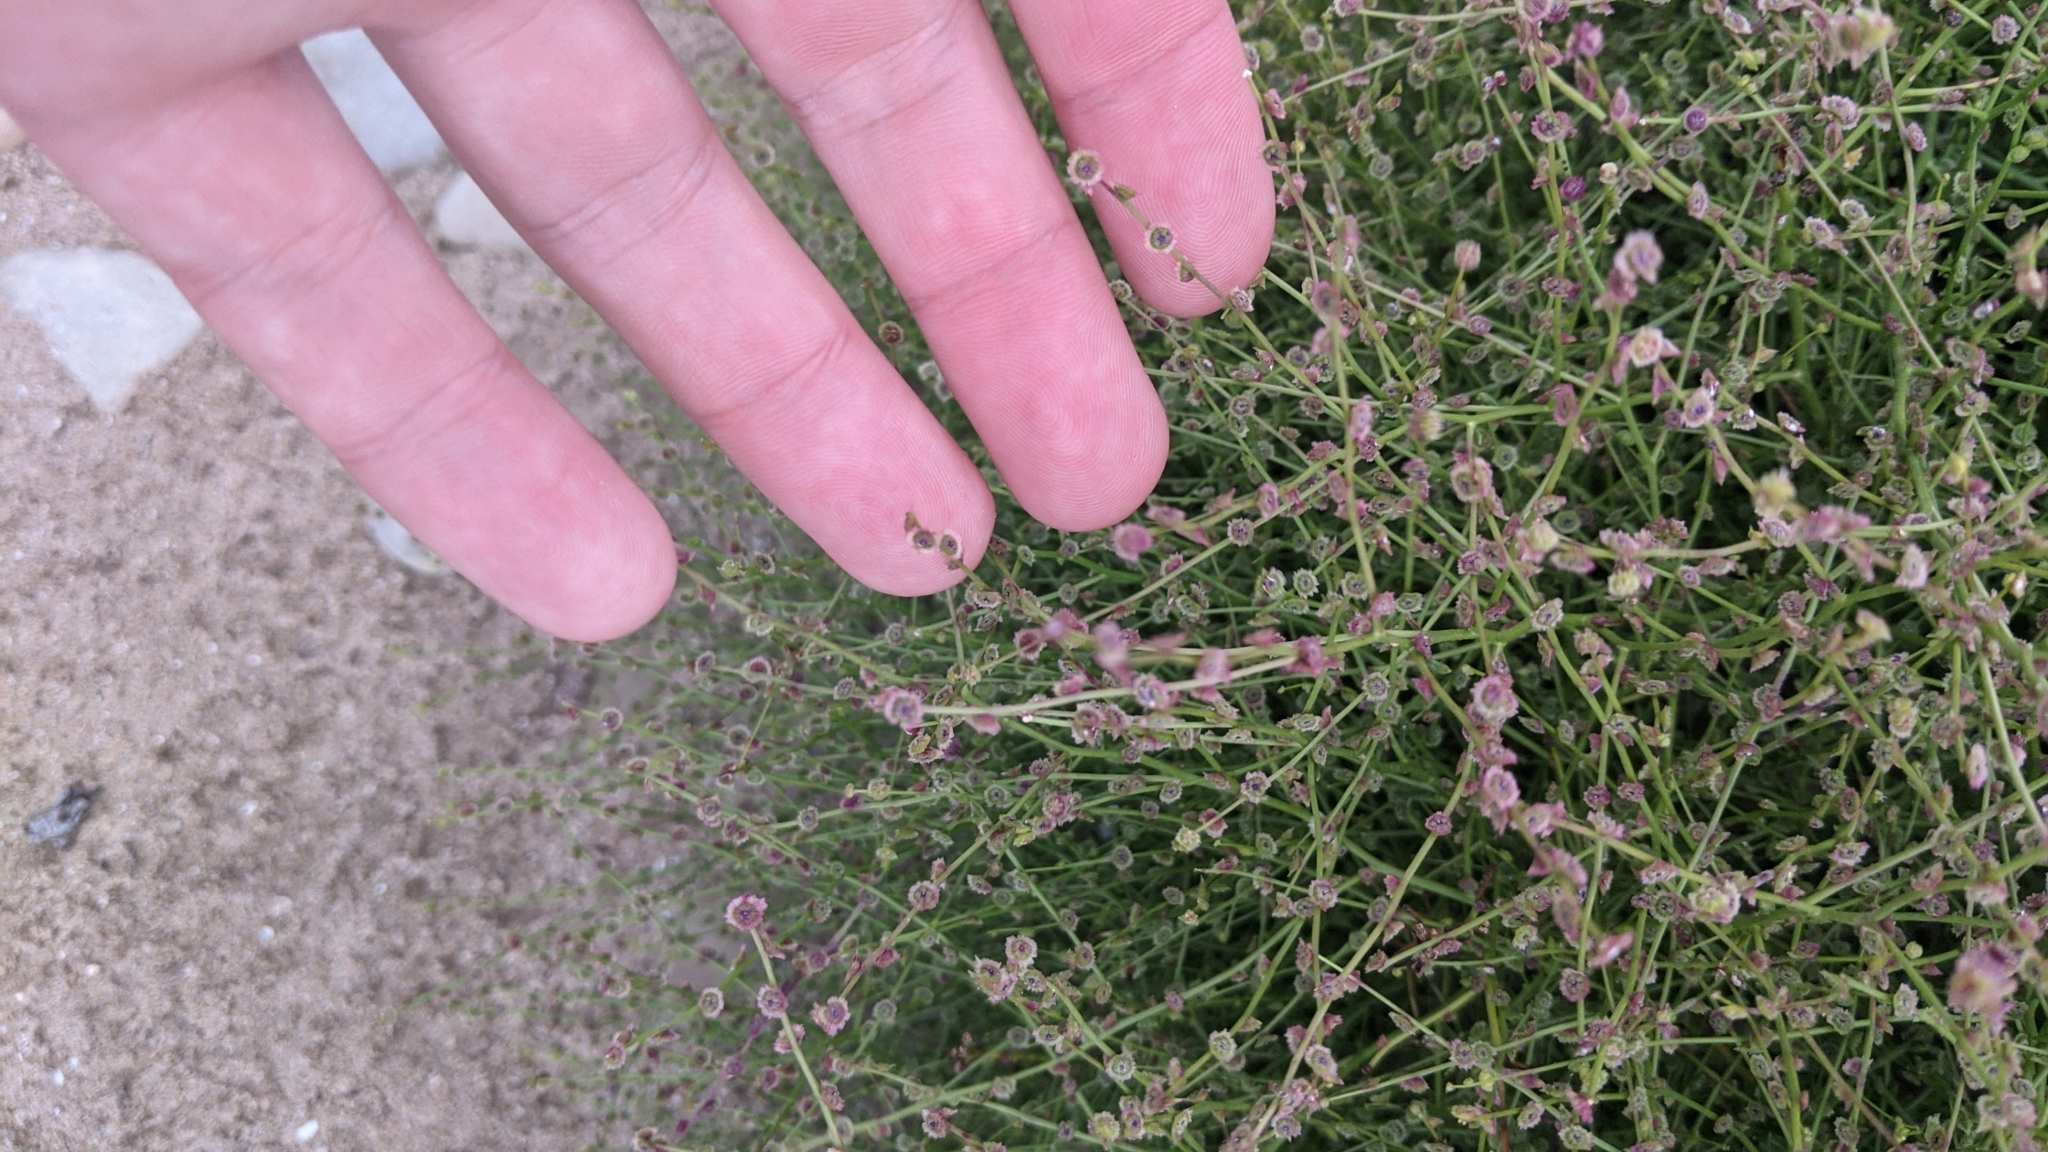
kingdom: Plantae
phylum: Tracheophyta
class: Magnoliopsida
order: Caryophyllales
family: Amaranthaceae
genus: Dysphania
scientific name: Dysphania atriplicifolia
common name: Plains tumbleweed
